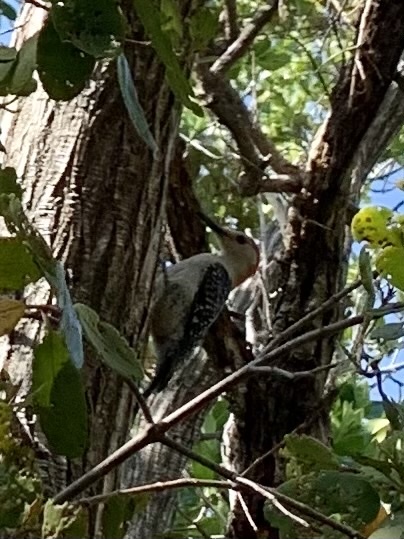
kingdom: Animalia
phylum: Chordata
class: Aves
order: Piciformes
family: Picidae
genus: Melanerpes
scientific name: Melanerpes carolinus
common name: Red-bellied woodpecker
